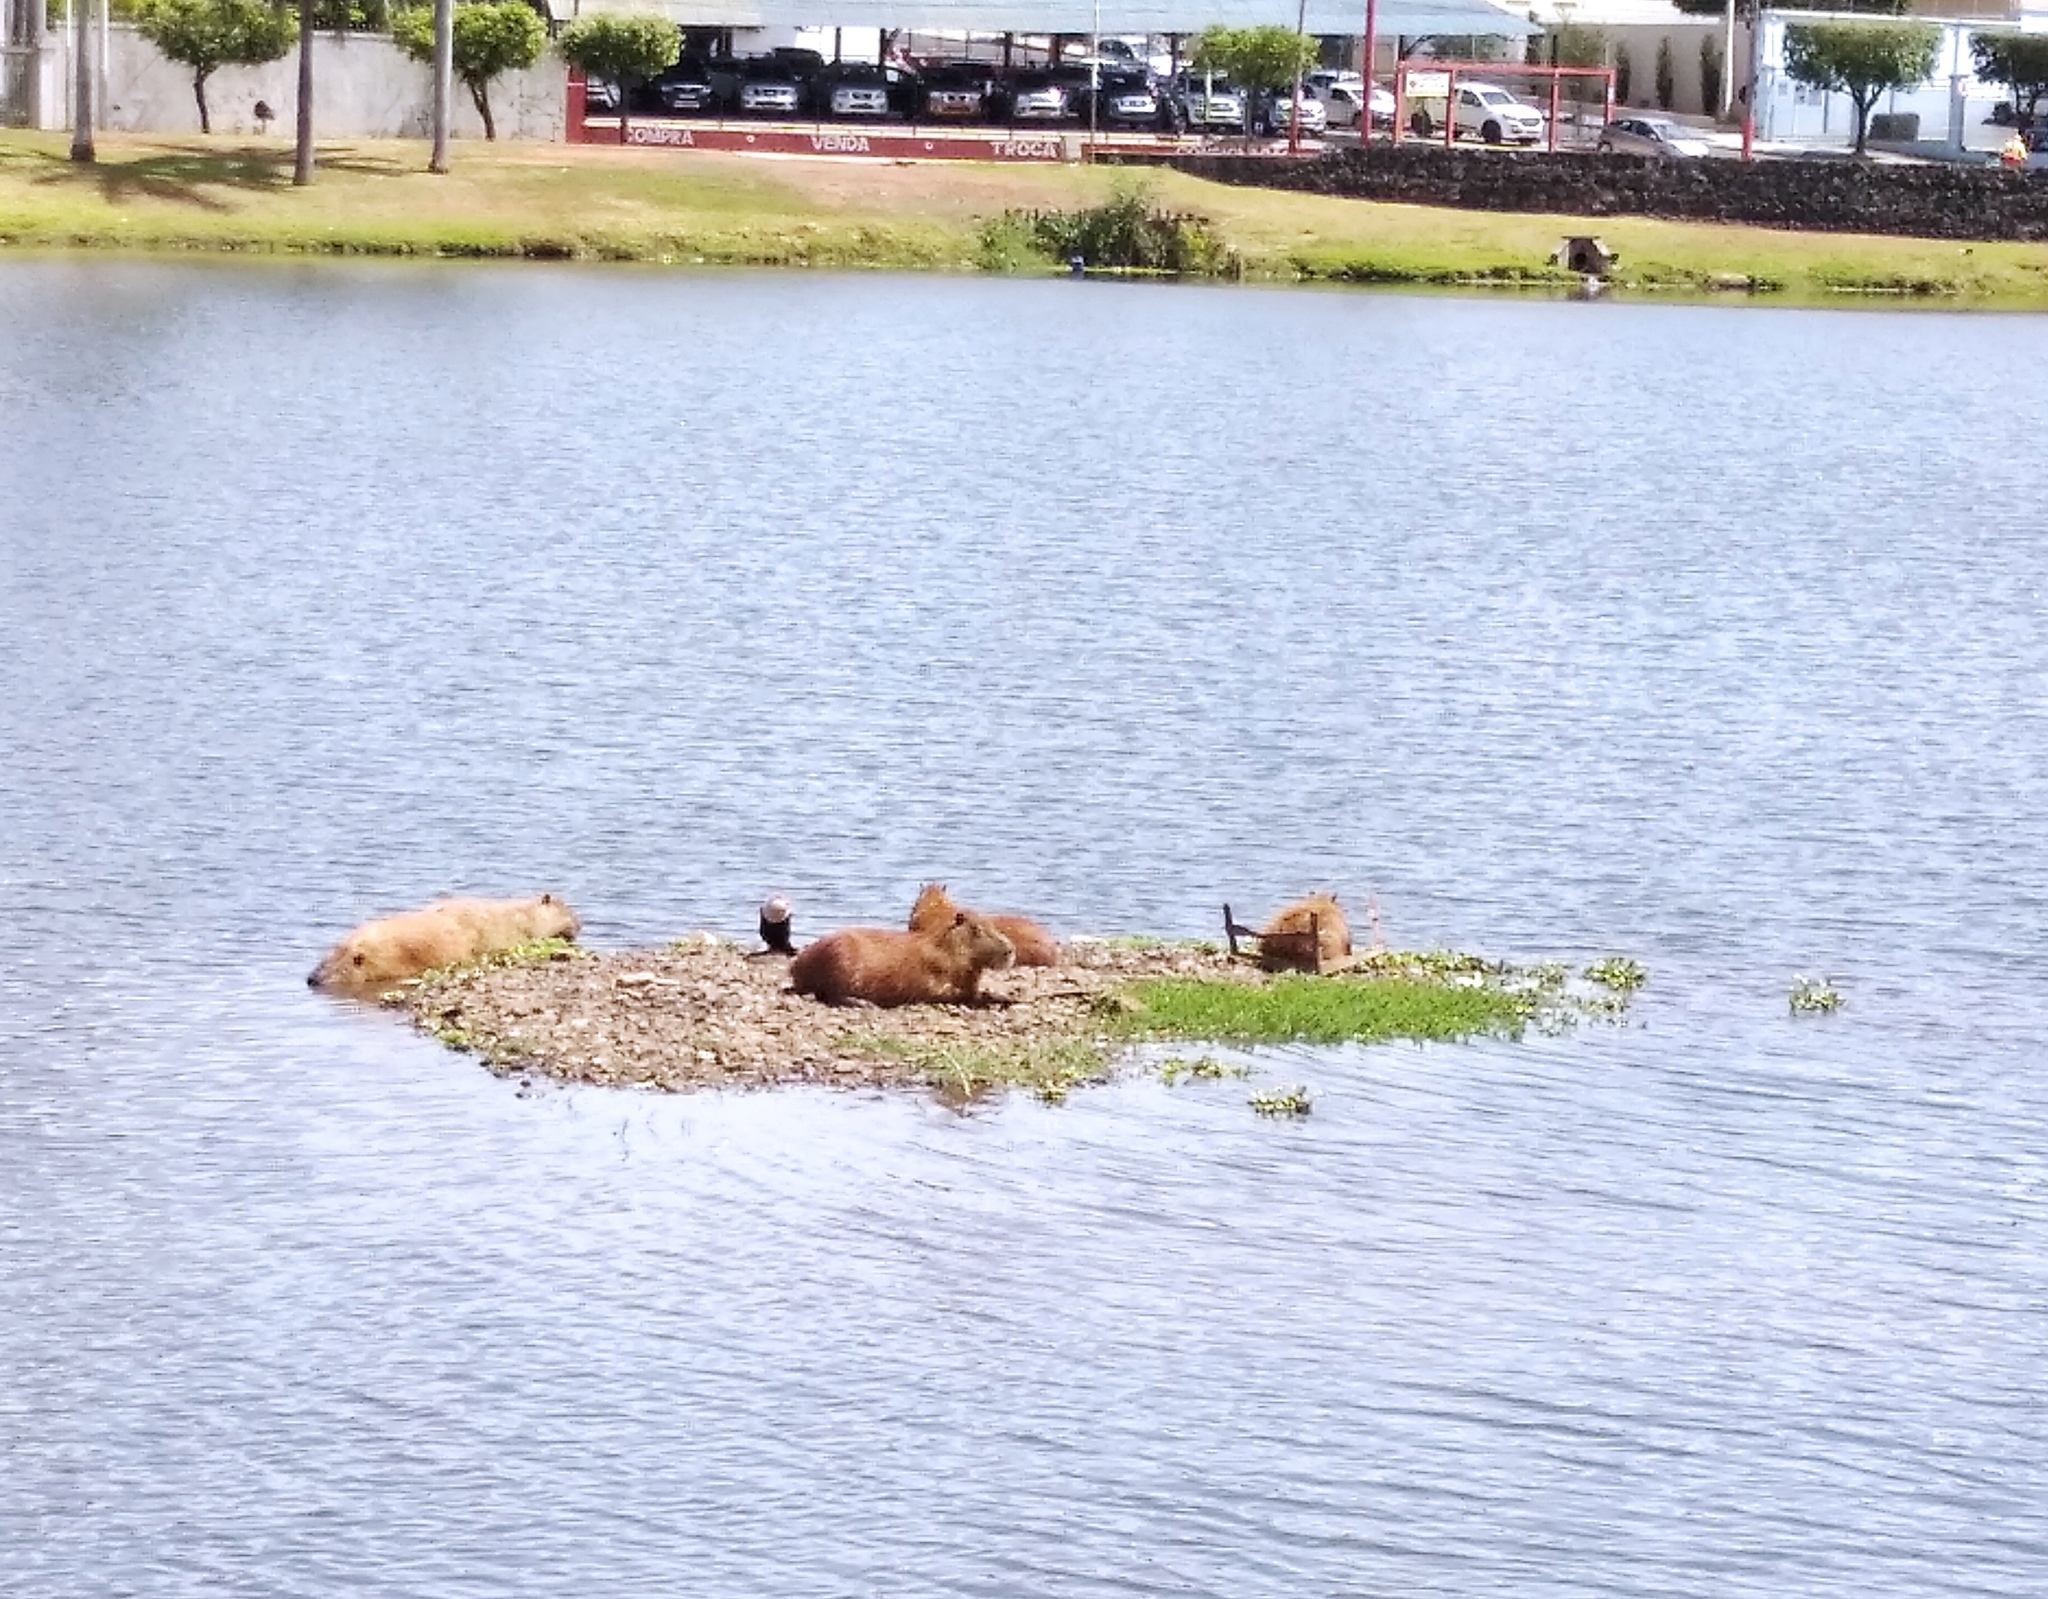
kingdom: Animalia
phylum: Chordata
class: Mammalia
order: Rodentia
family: Caviidae
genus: Hydrochoerus
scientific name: Hydrochoerus hydrochaeris
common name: Capybara
